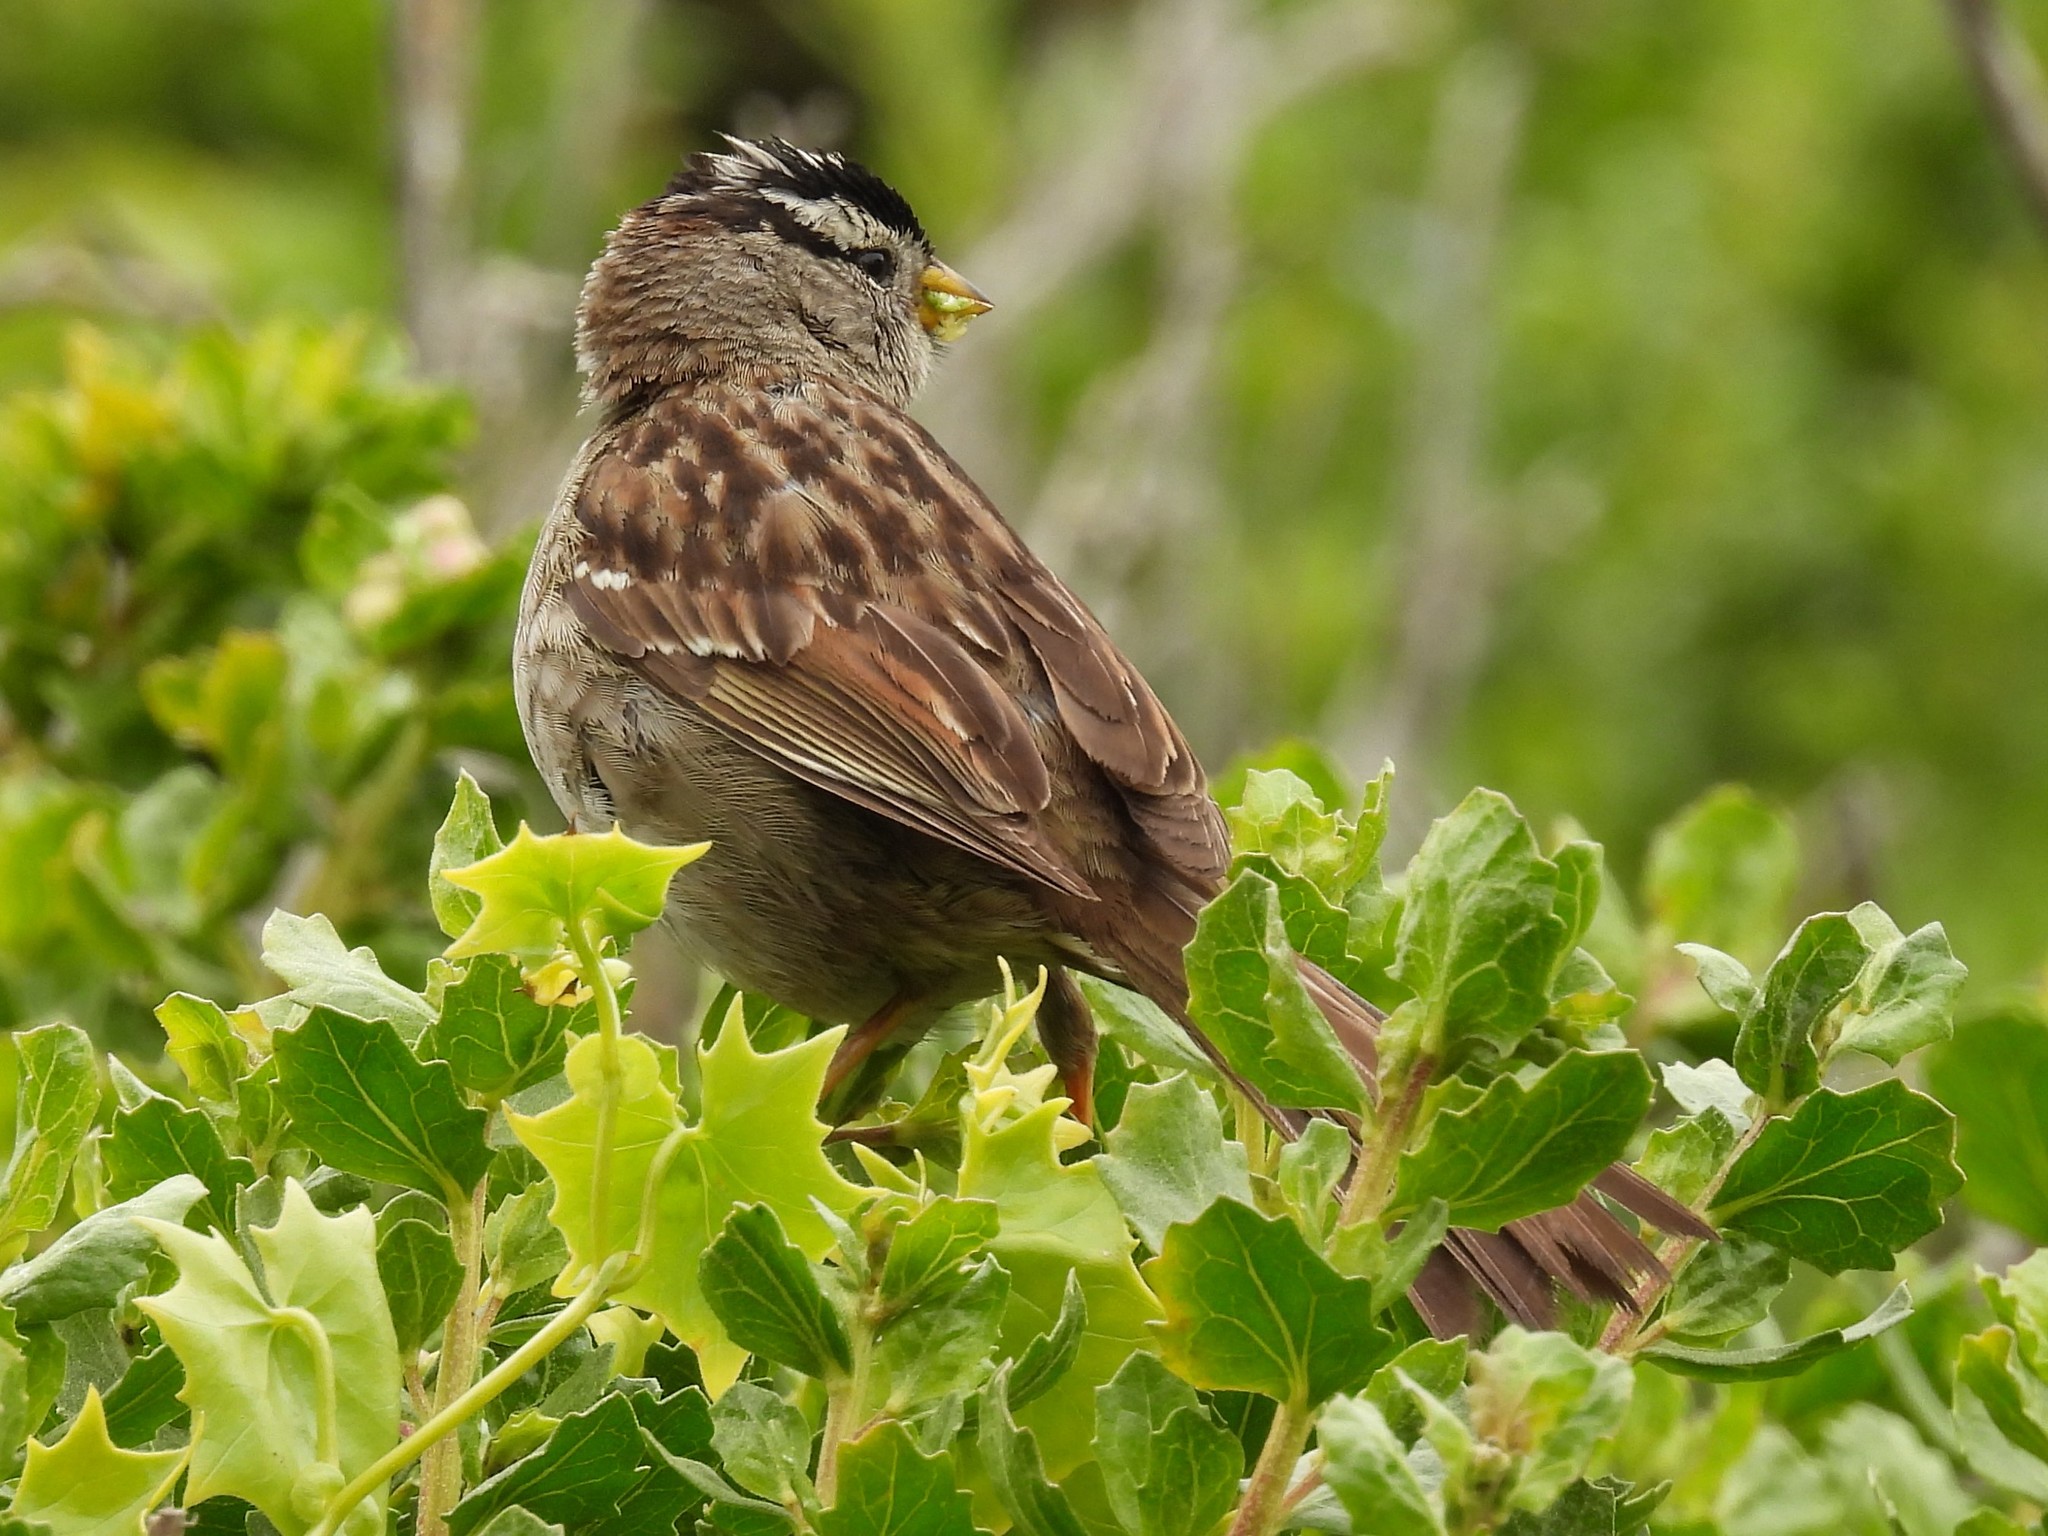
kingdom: Animalia
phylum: Chordata
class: Aves
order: Passeriformes
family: Passerellidae
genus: Zonotrichia
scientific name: Zonotrichia leucophrys
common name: White-crowned sparrow
